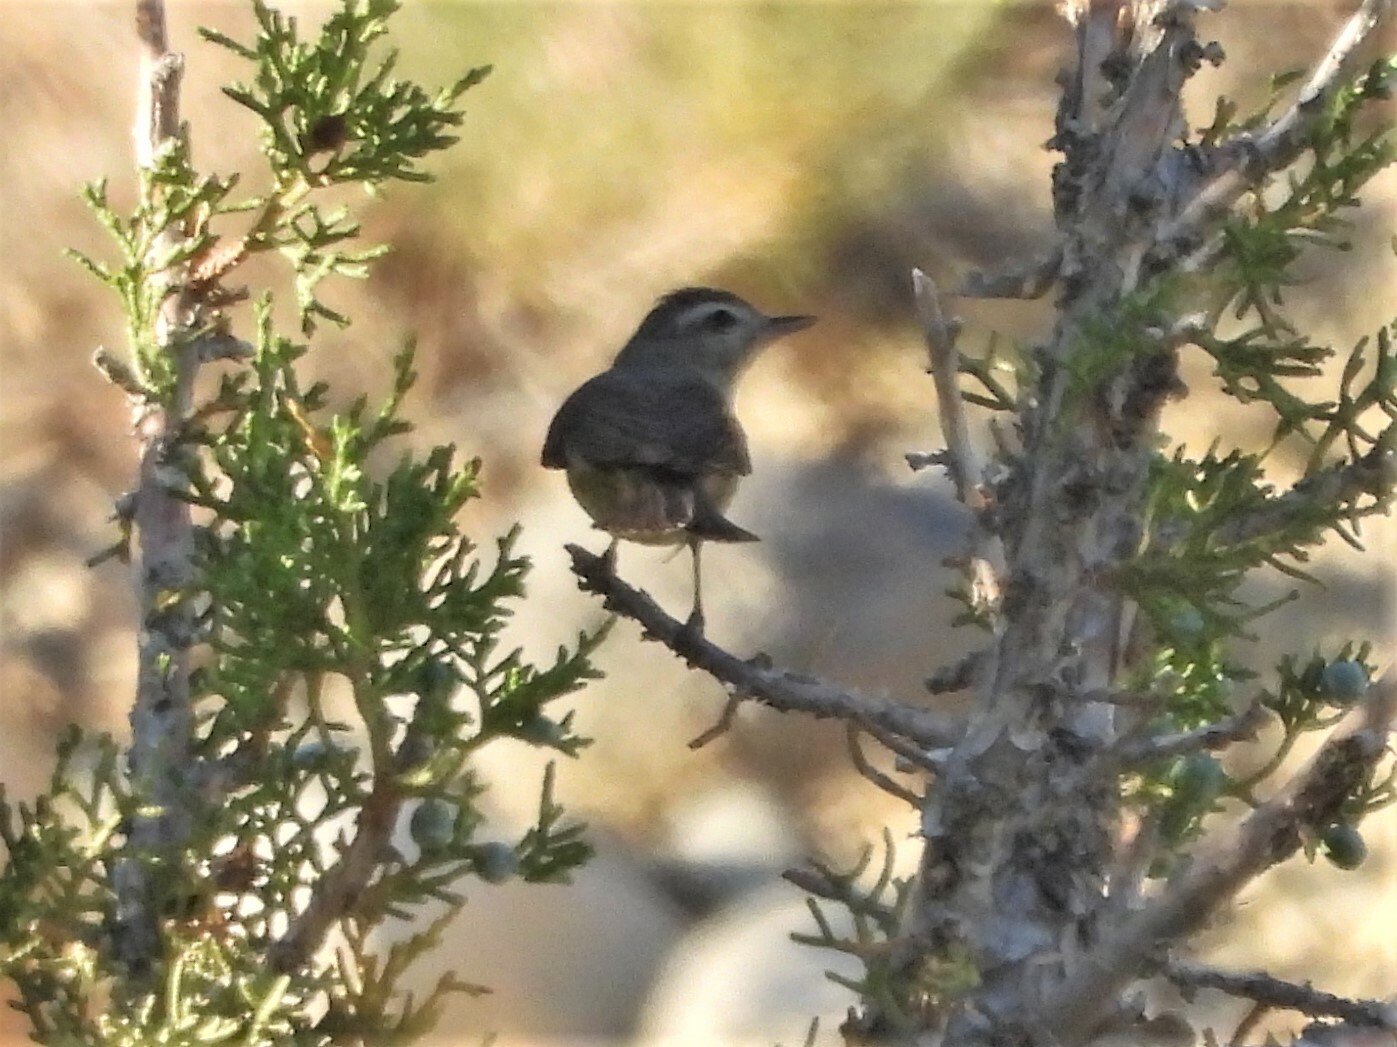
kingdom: Animalia
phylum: Chordata
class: Aves
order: Passeriformes
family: Vireonidae
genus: Vireo
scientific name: Vireo gilvus
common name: Warbling vireo
